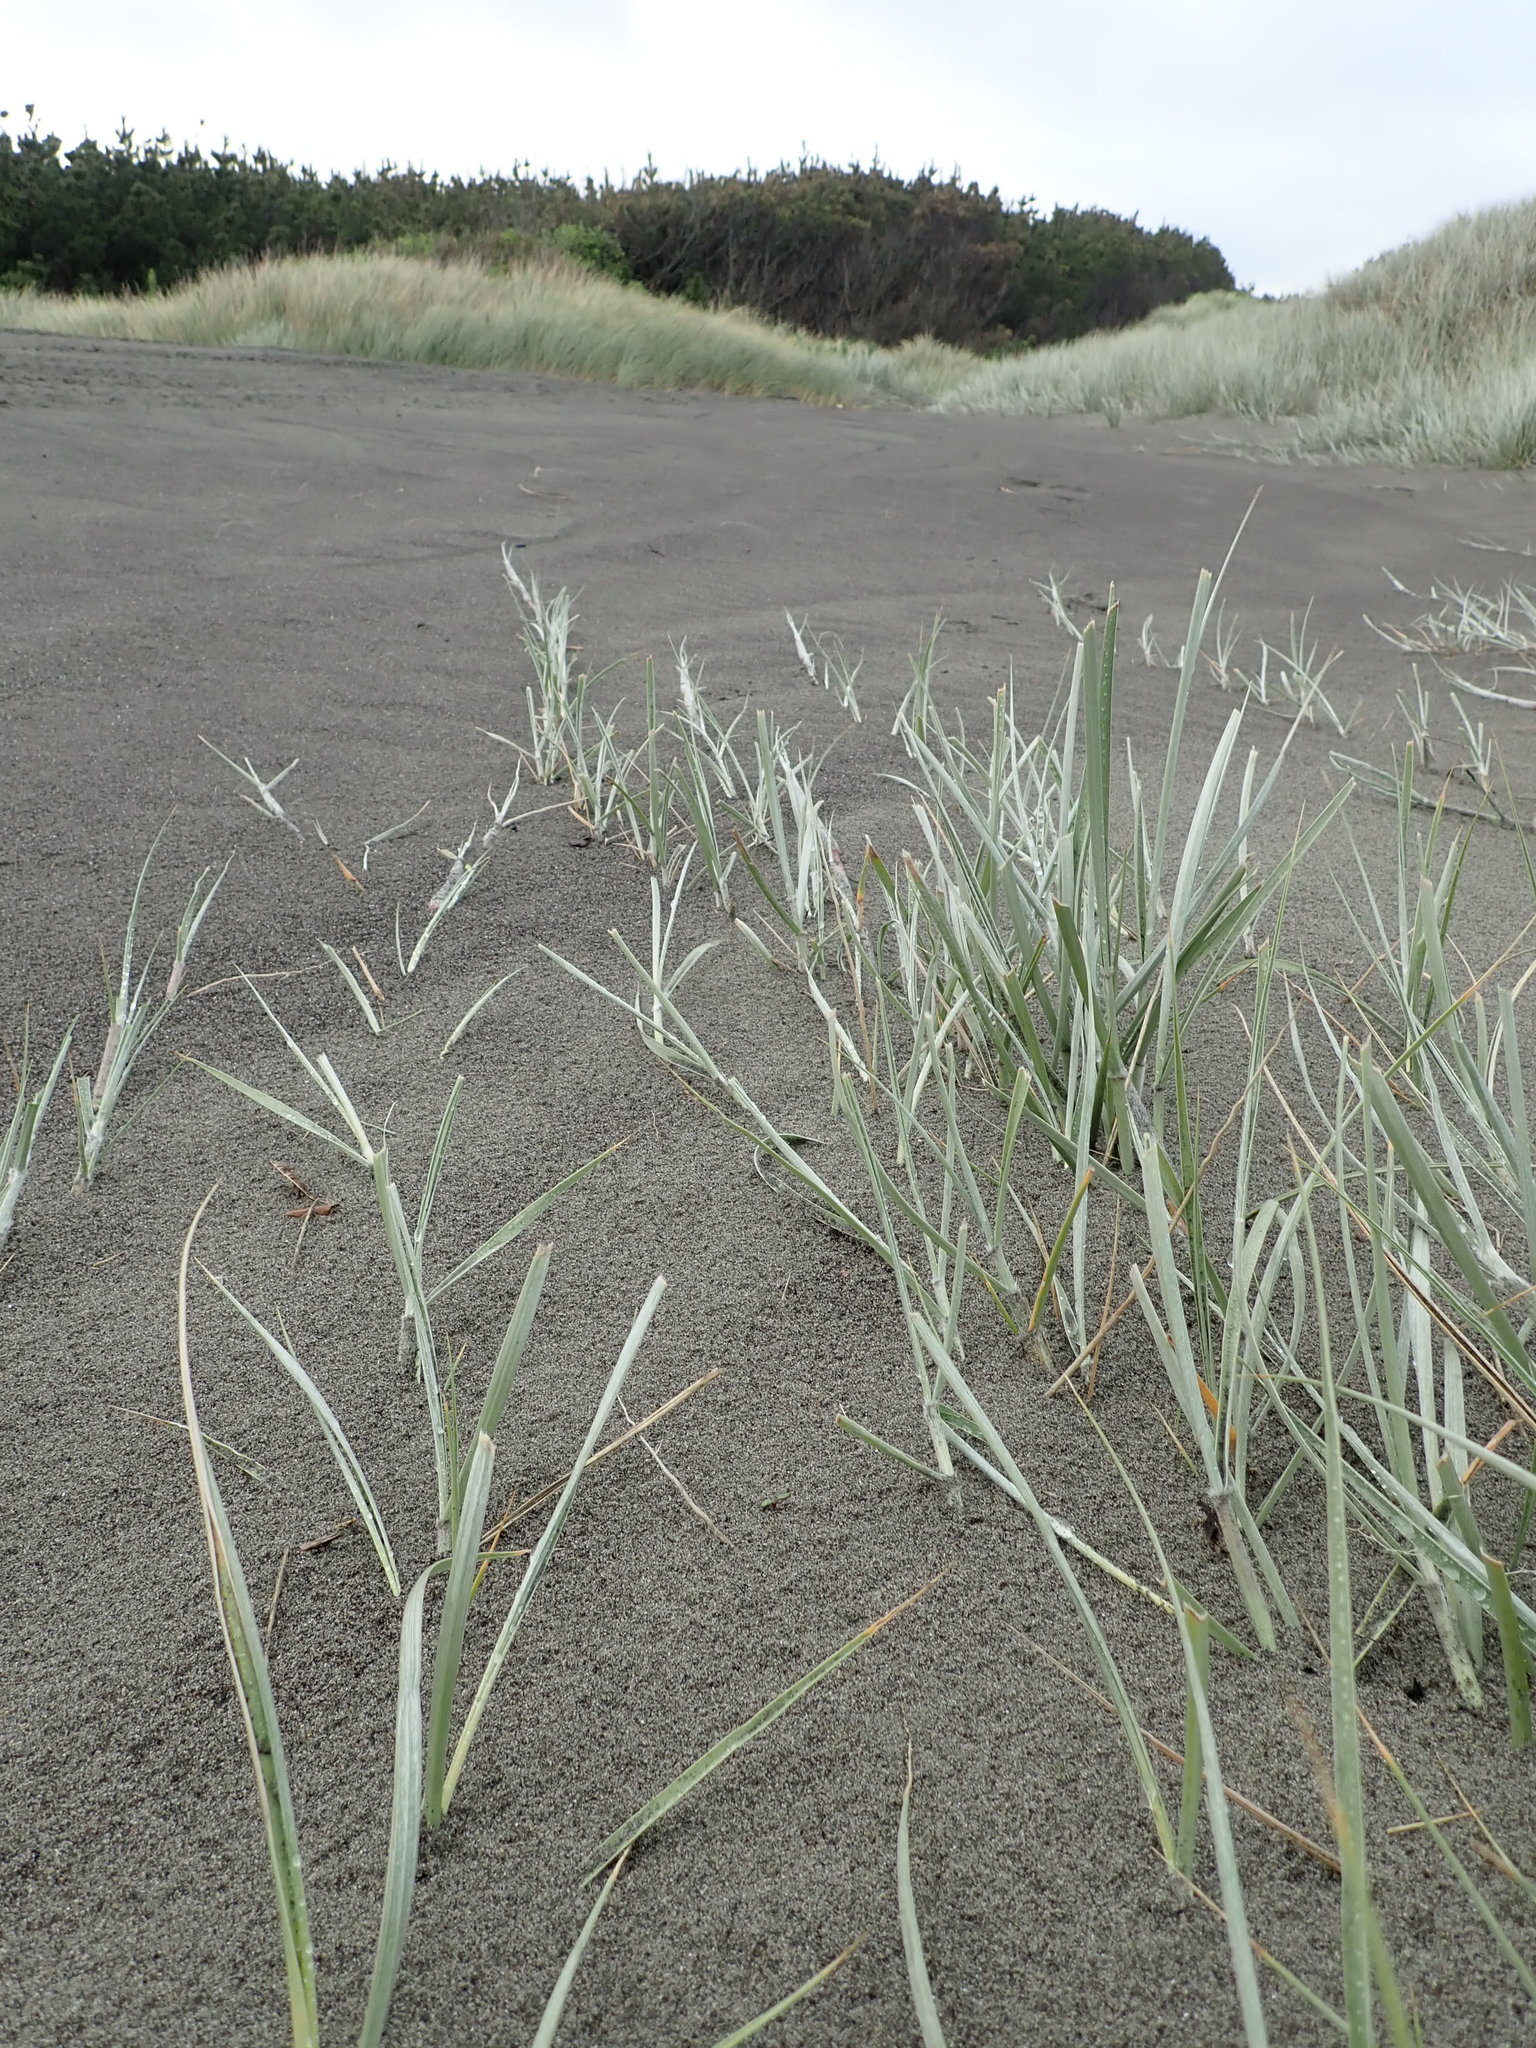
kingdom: Plantae
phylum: Tracheophyta
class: Liliopsida
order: Poales
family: Poaceae
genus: Spinifex
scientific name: Spinifex sericeus
